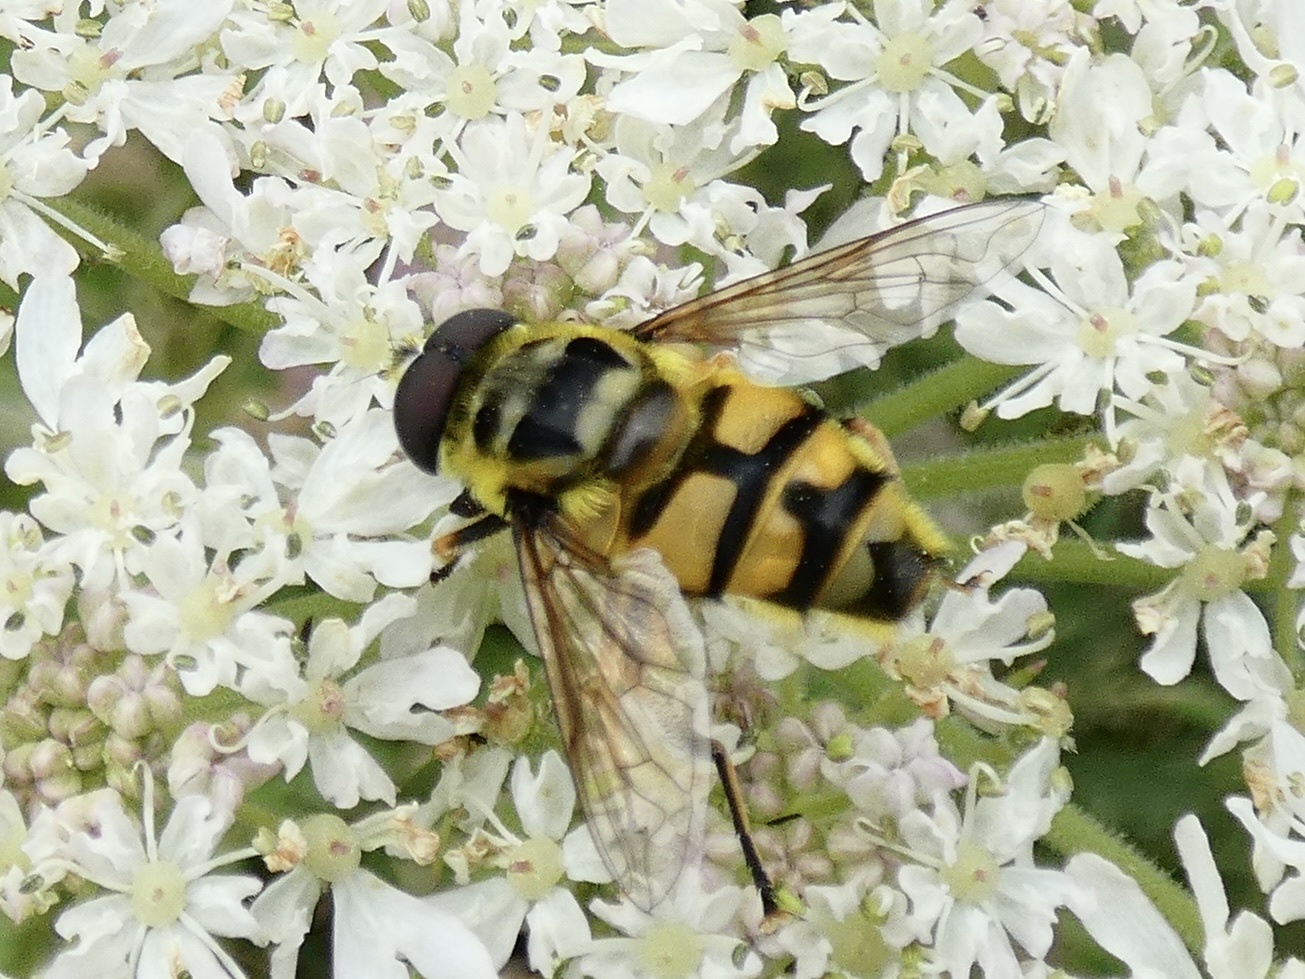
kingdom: Animalia
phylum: Arthropoda
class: Insecta
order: Diptera
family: Syrphidae
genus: Myathropa
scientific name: Myathropa florea
